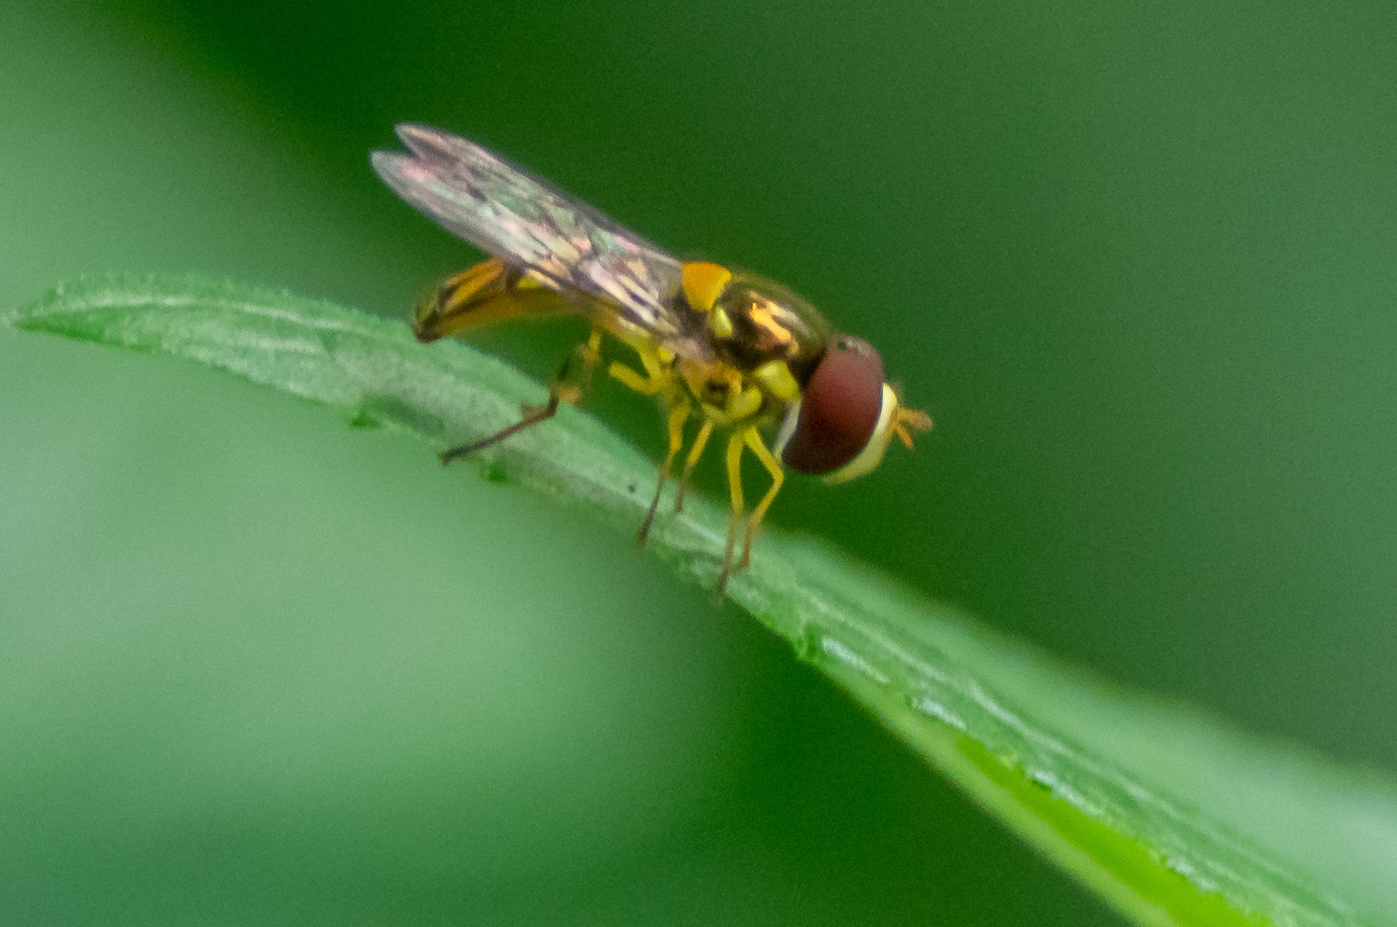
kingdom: Animalia
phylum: Arthropoda
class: Insecta
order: Diptera
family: Syrphidae
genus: Allograpta
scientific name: Allograpta obliqua
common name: Common oblique syrphid
